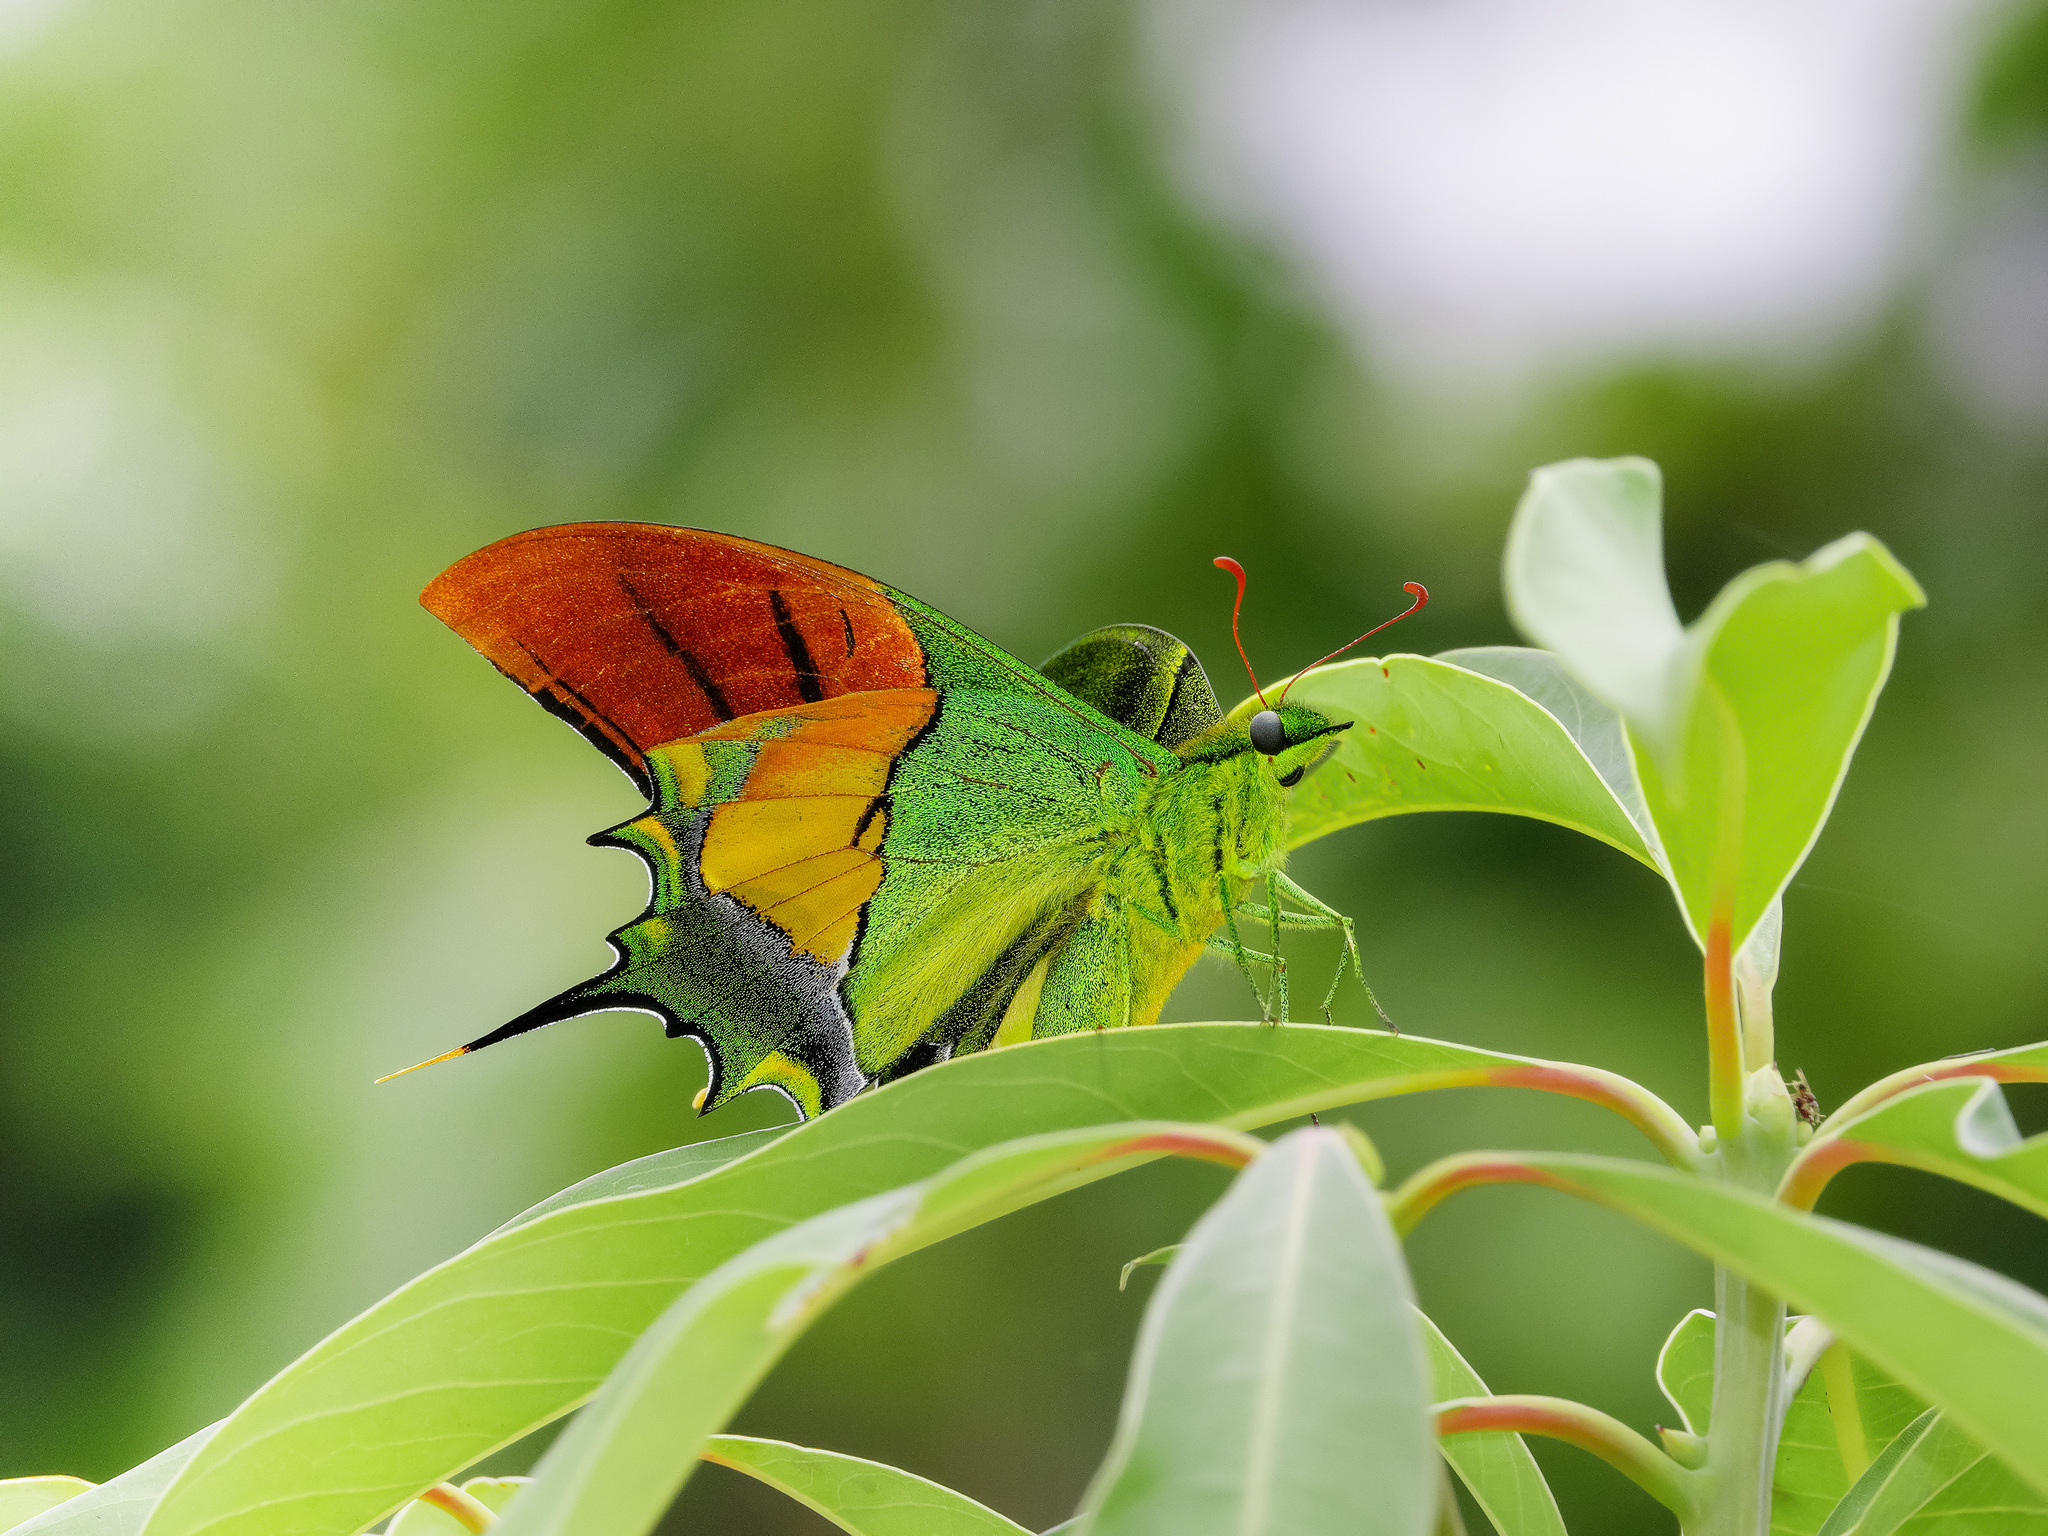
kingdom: Animalia
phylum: Arthropoda
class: Insecta
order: Lepidoptera
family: Papilionidae
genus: Teinopalpus
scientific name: Teinopalpus imperialis
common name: Kaiser-i-hind
